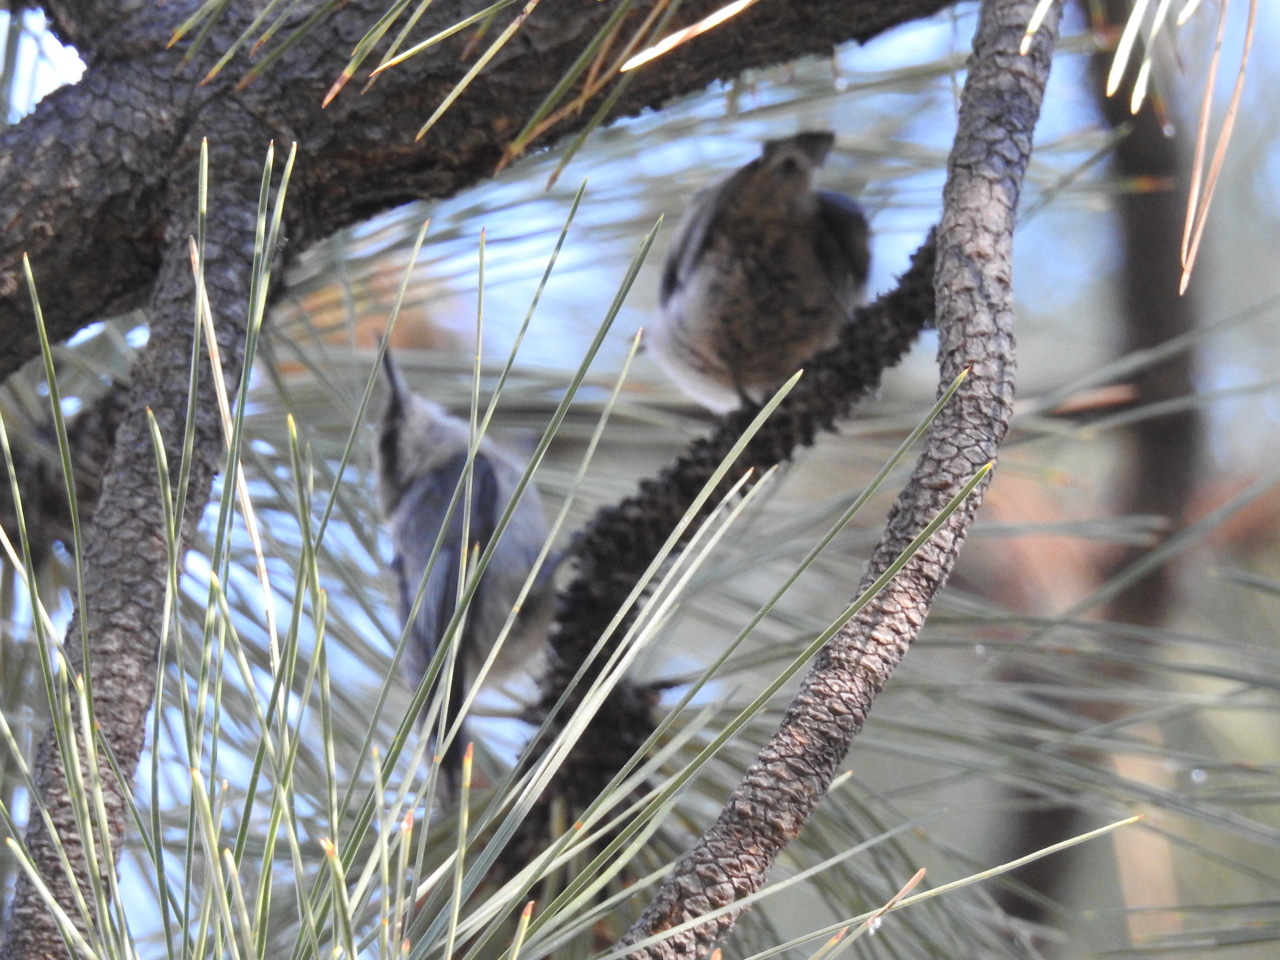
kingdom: Animalia
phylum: Chordata
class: Aves
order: Passeriformes
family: Sittidae
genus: Sitta
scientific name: Sitta pygmaea
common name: Pygmy nuthatch
